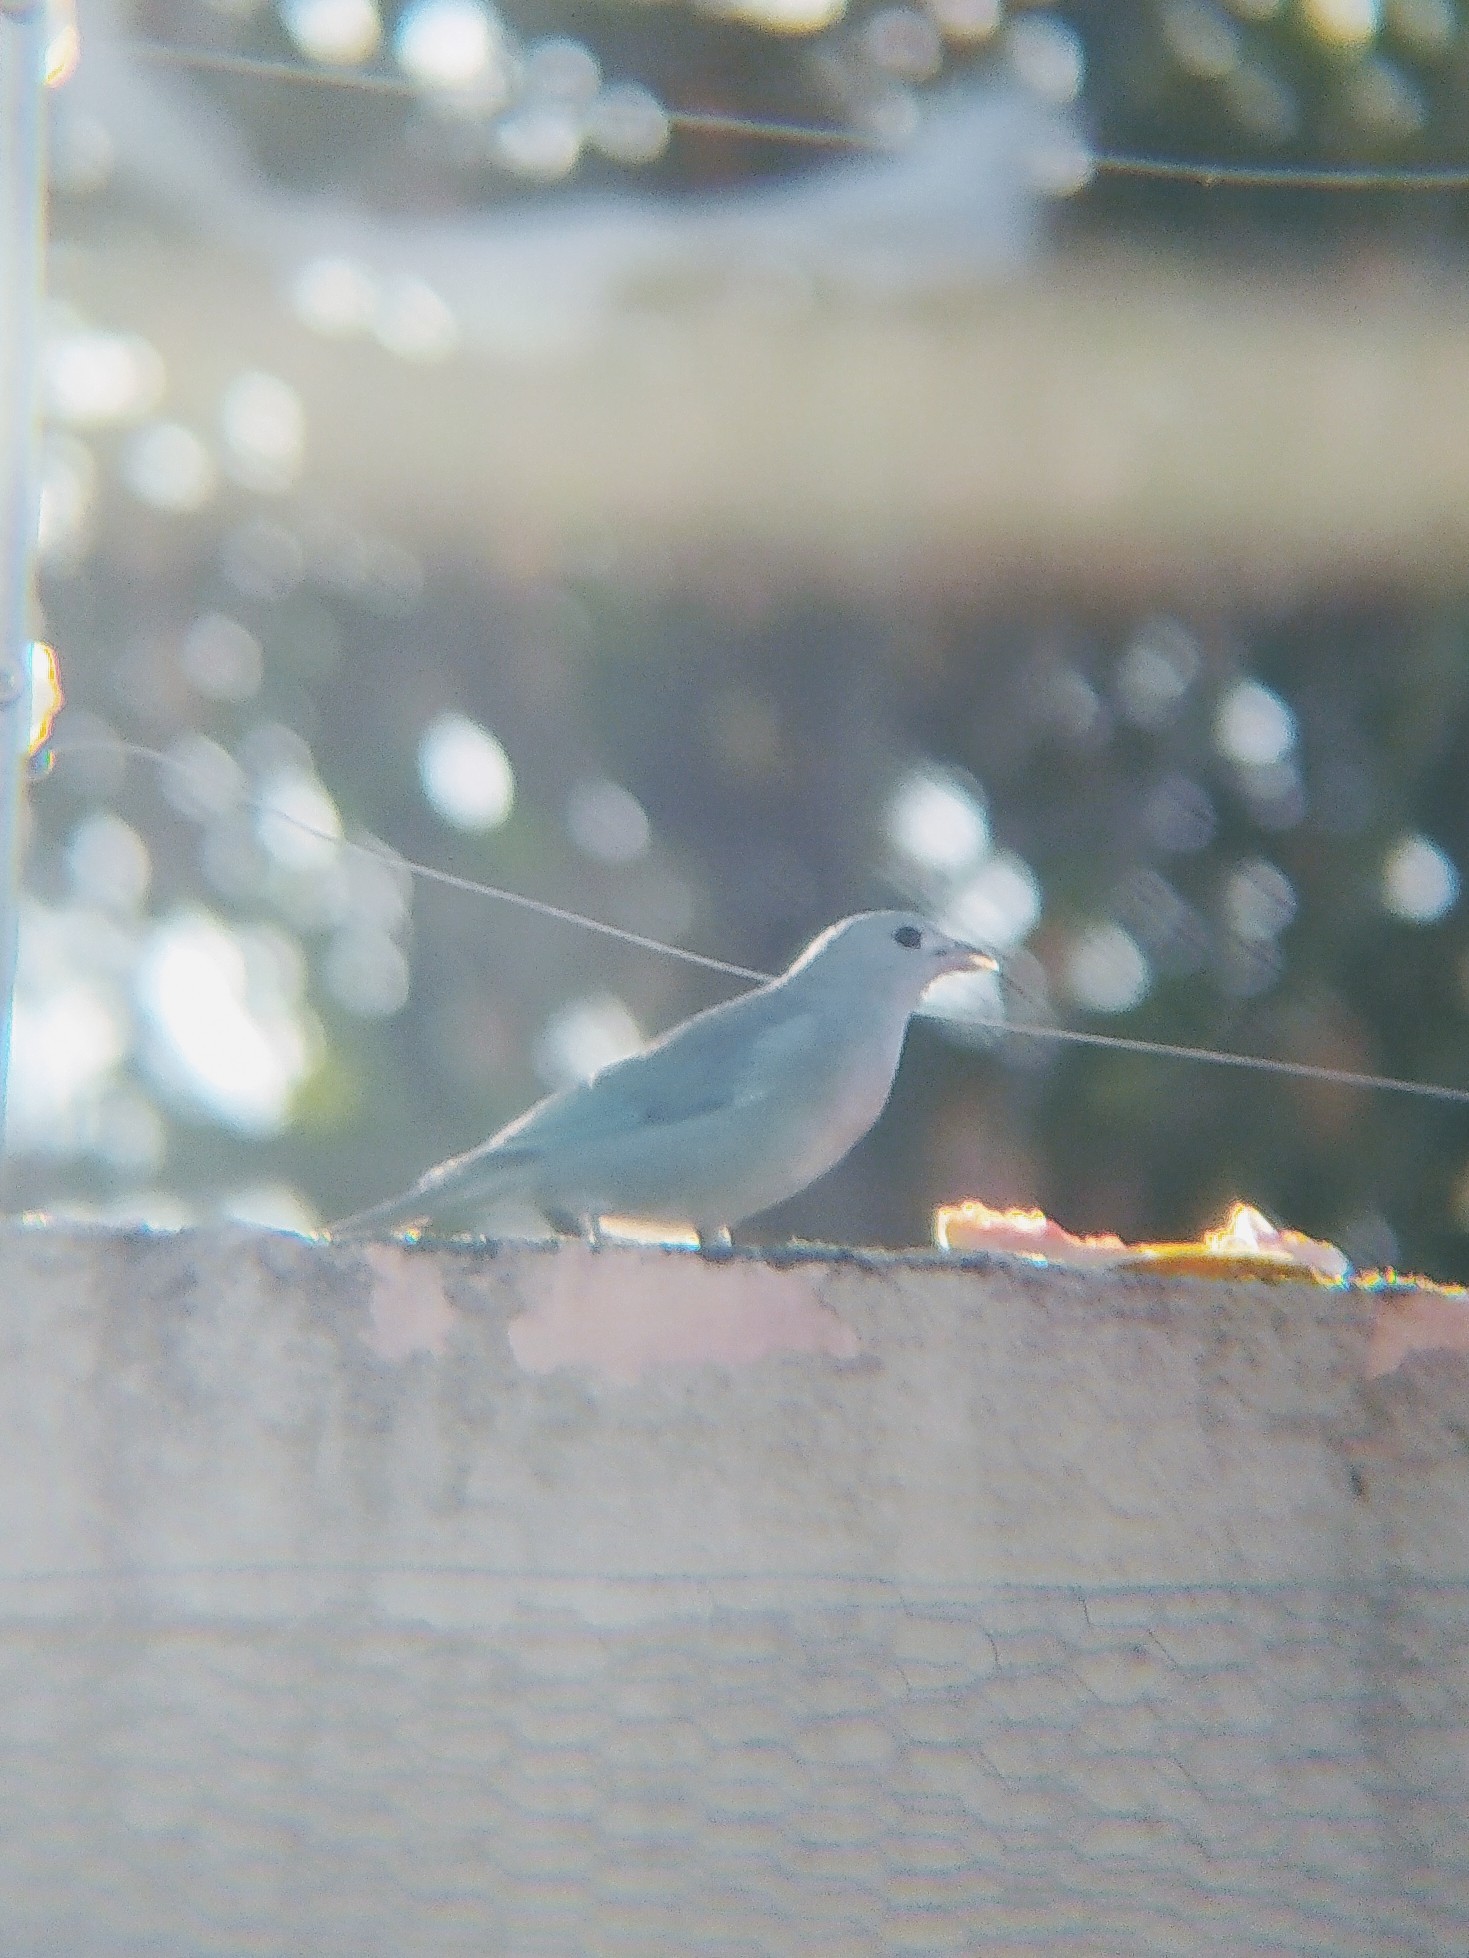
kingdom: Animalia
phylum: Chordata
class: Aves
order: Passeriformes
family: Thraupidae
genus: Thraupis
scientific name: Thraupis sayaca
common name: Sayaca tanager
